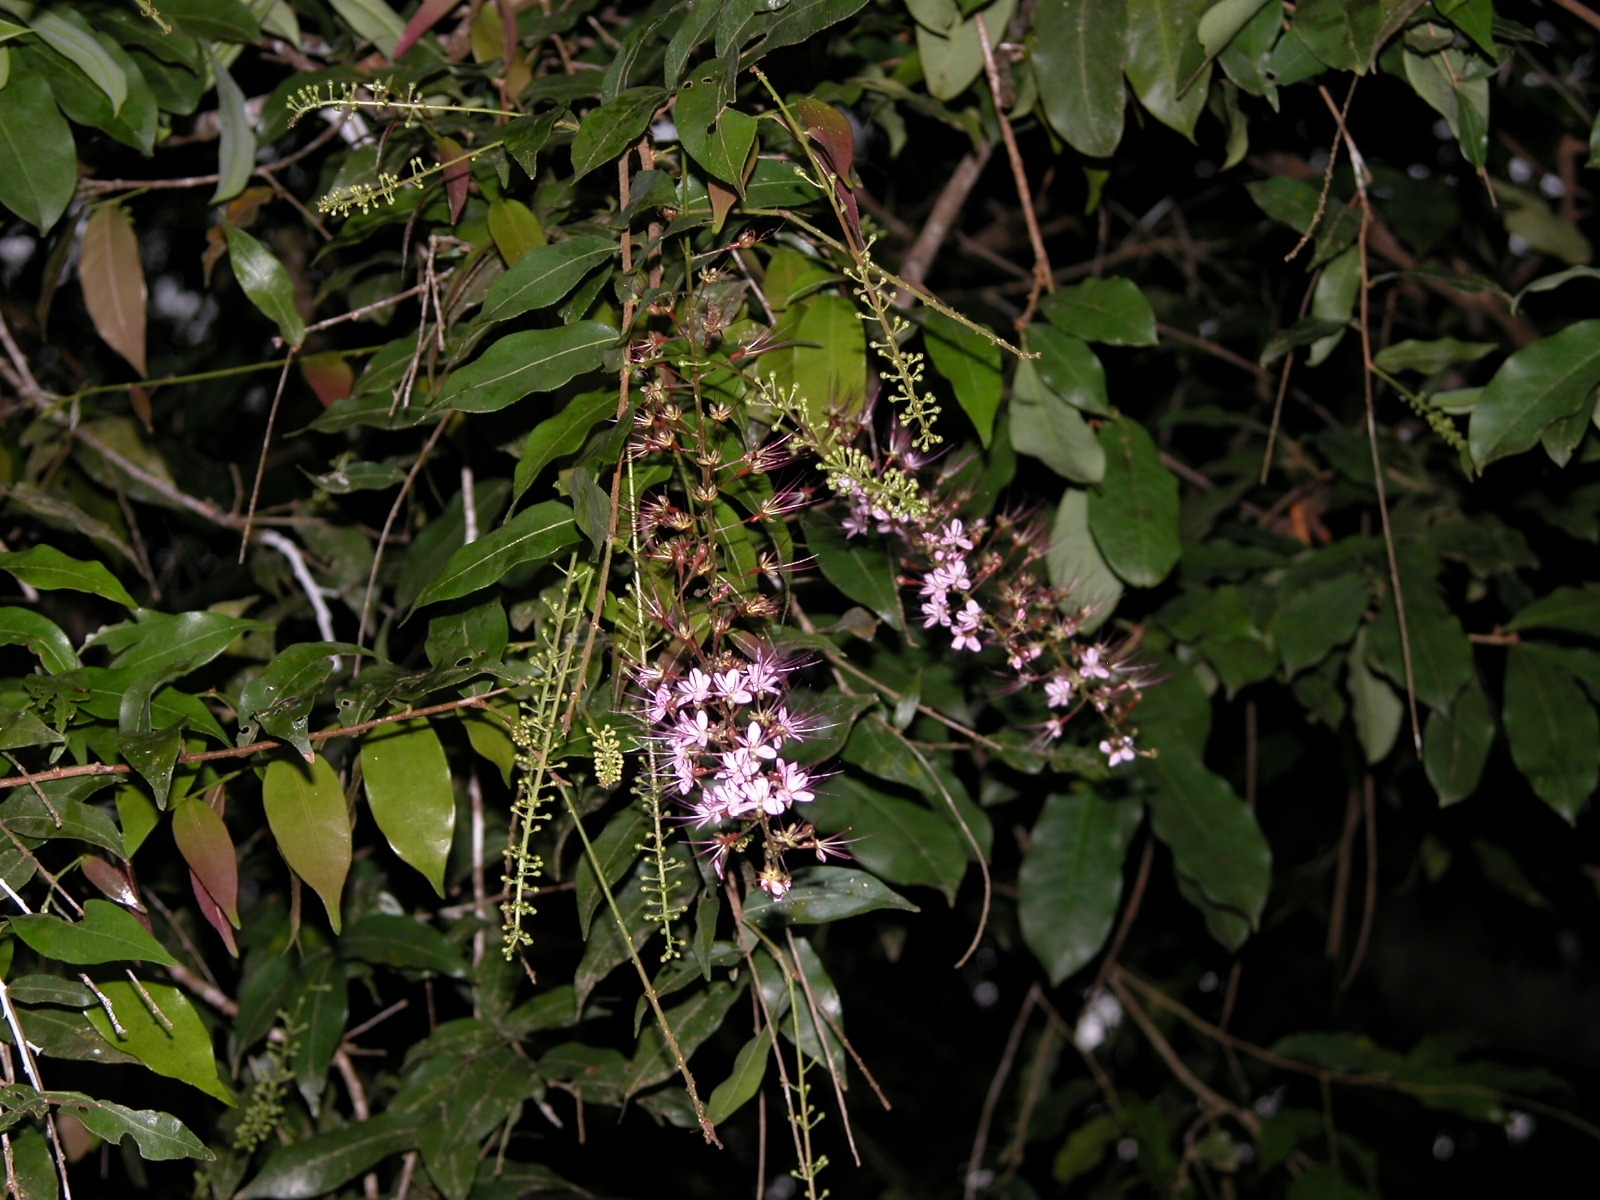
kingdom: Plantae
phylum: Tracheophyta
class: Magnoliopsida
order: Malpighiales
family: Chrysobalanaceae
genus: Hirtella
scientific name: Hirtella racemosa
